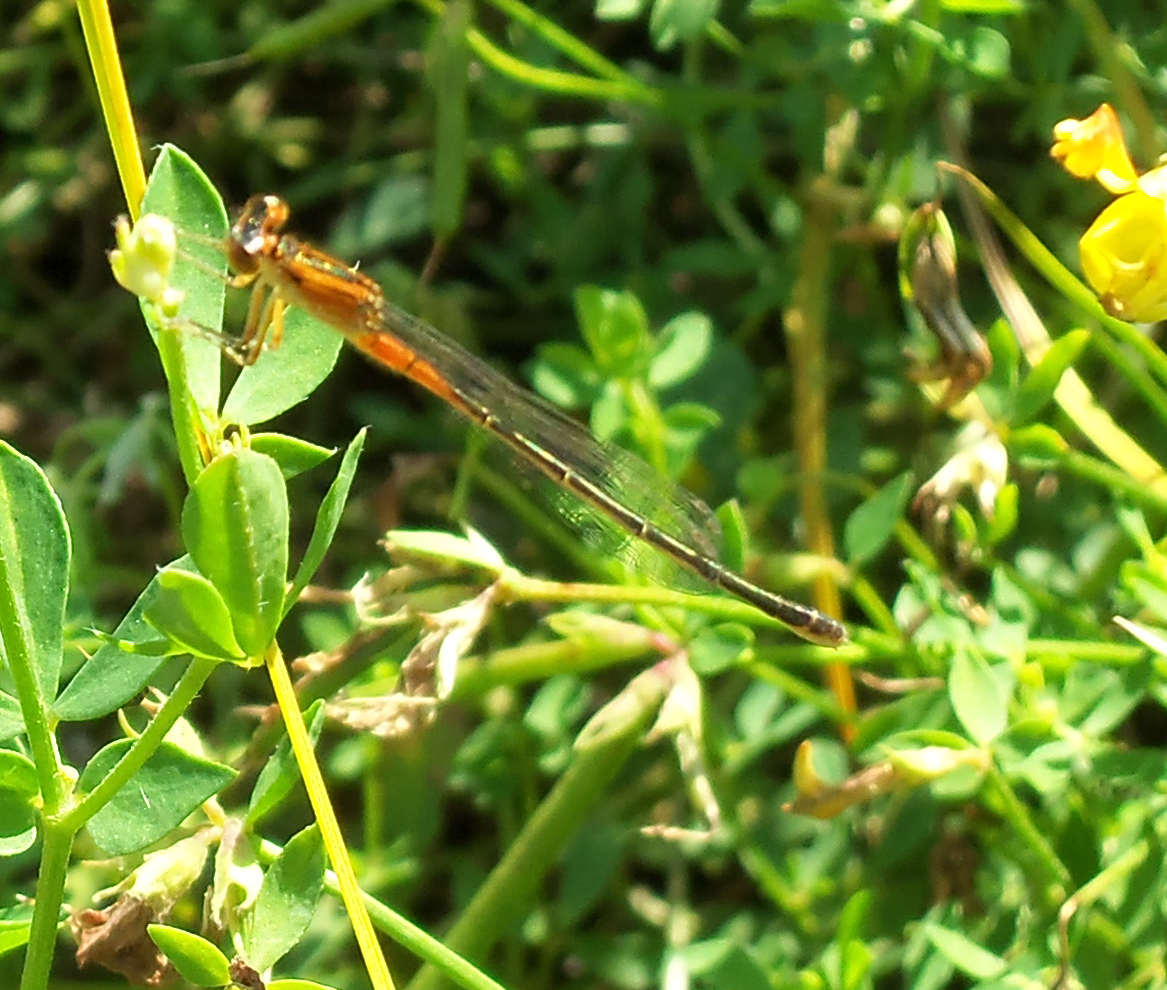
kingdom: Animalia
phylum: Arthropoda
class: Insecta
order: Odonata
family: Coenagrionidae
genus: Ischnura
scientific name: Ischnura verticalis
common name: Eastern forktail
